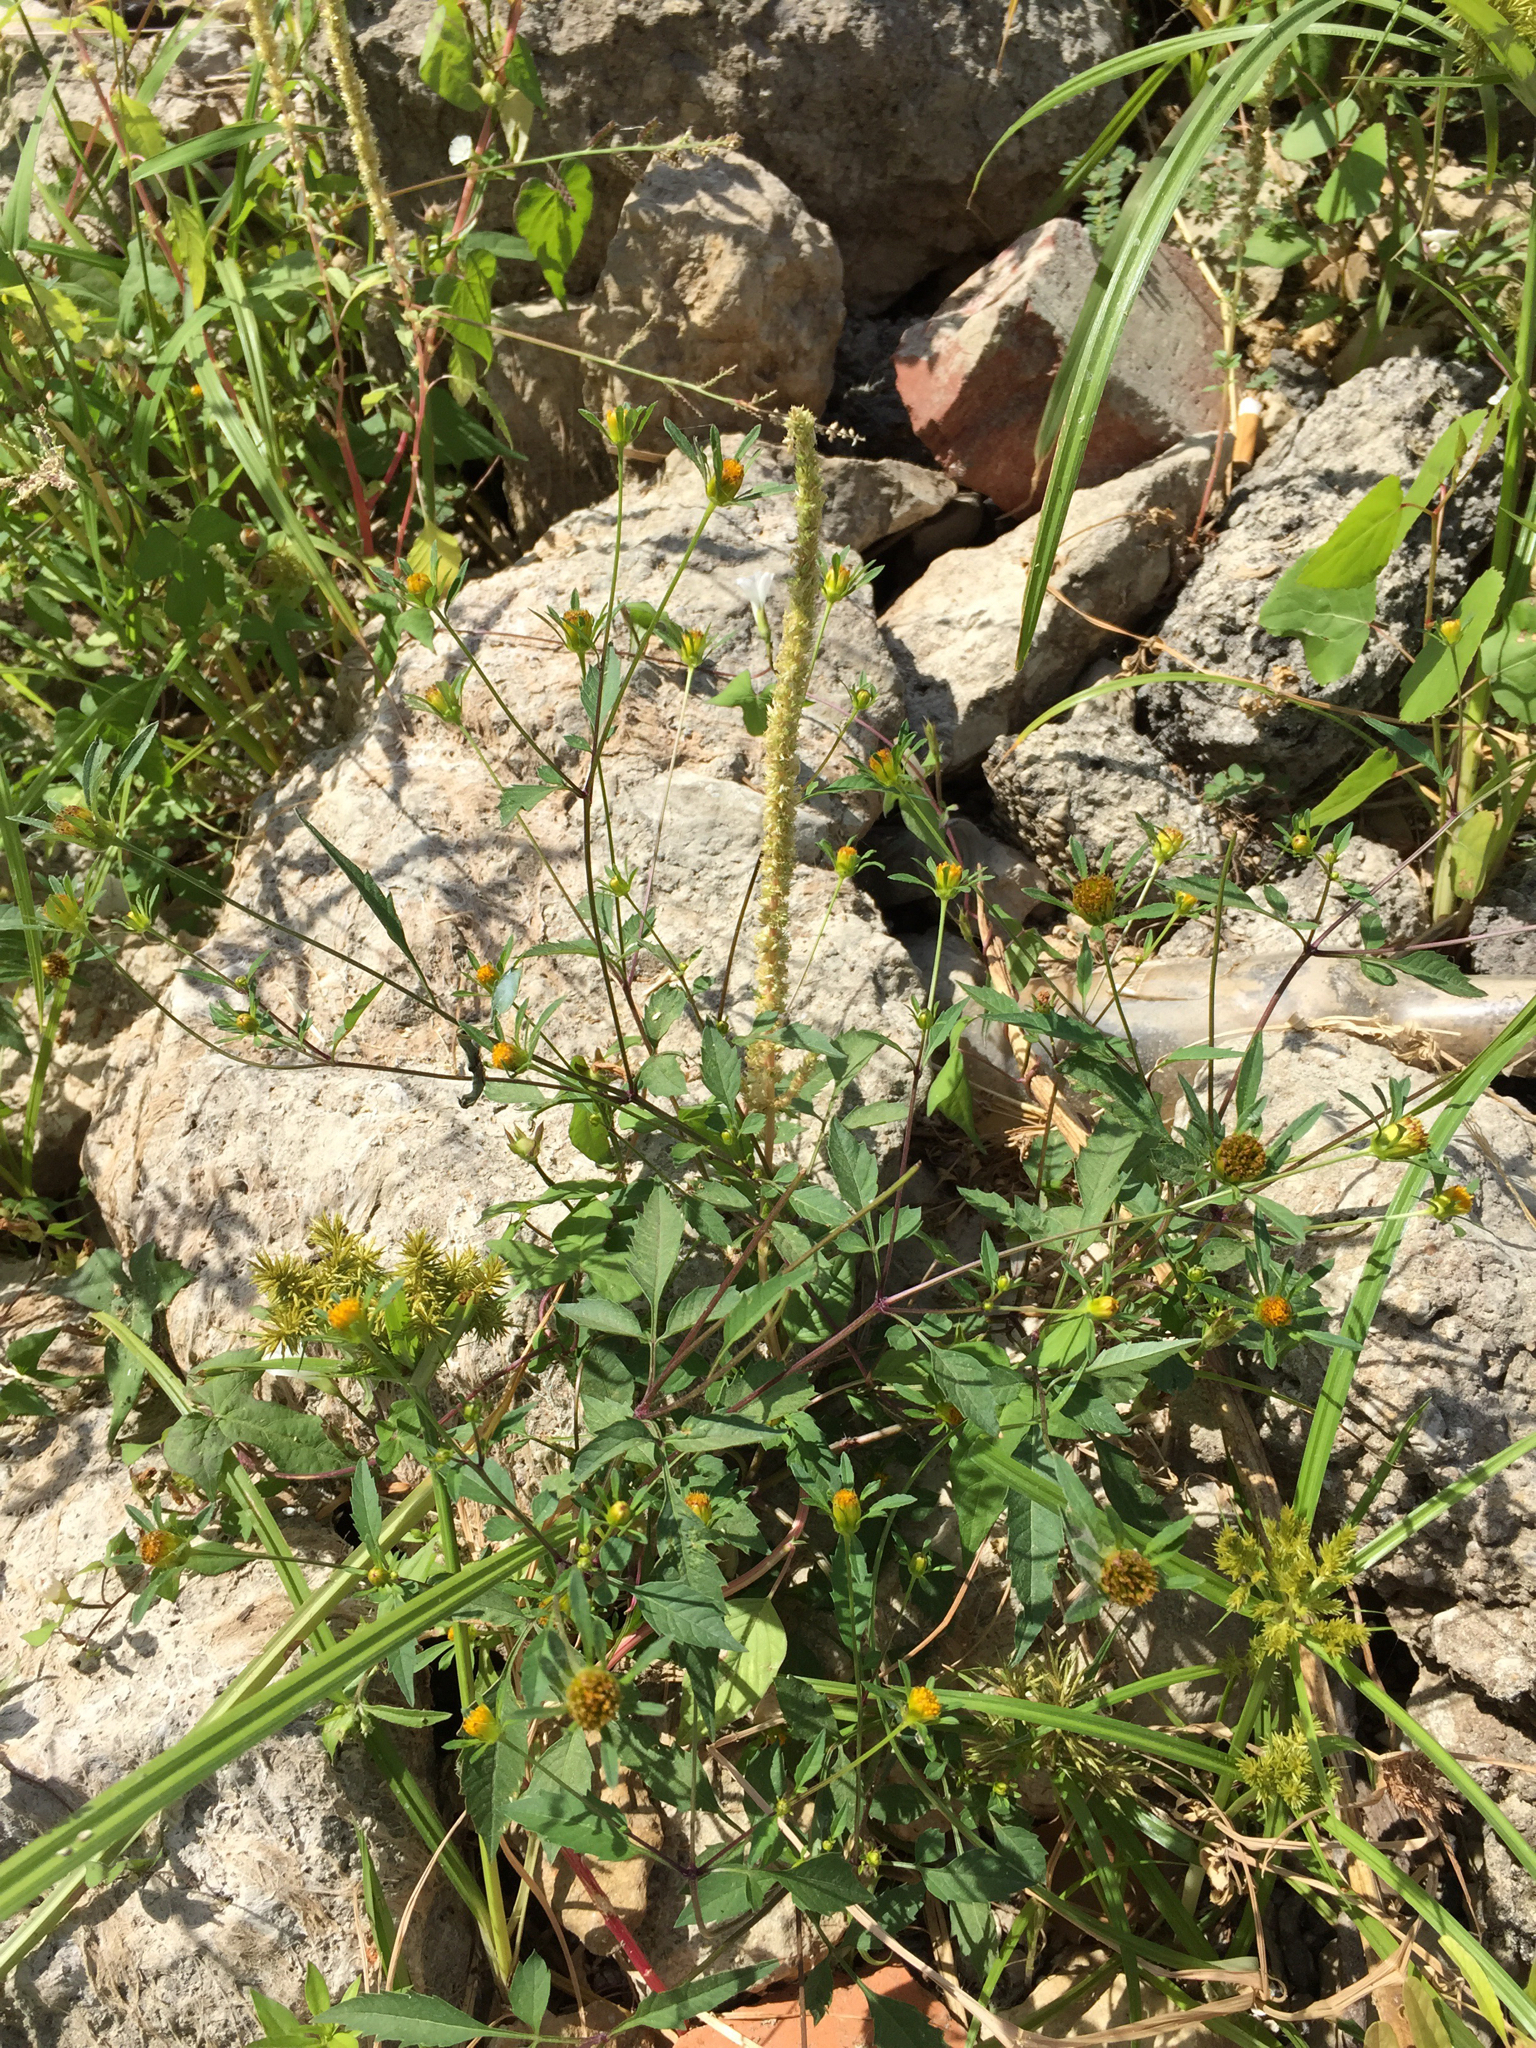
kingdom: Plantae
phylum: Tracheophyta
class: Magnoliopsida
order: Asterales
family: Asteraceae
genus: Bidens
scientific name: Bidens frondosa
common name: Beggarticks
